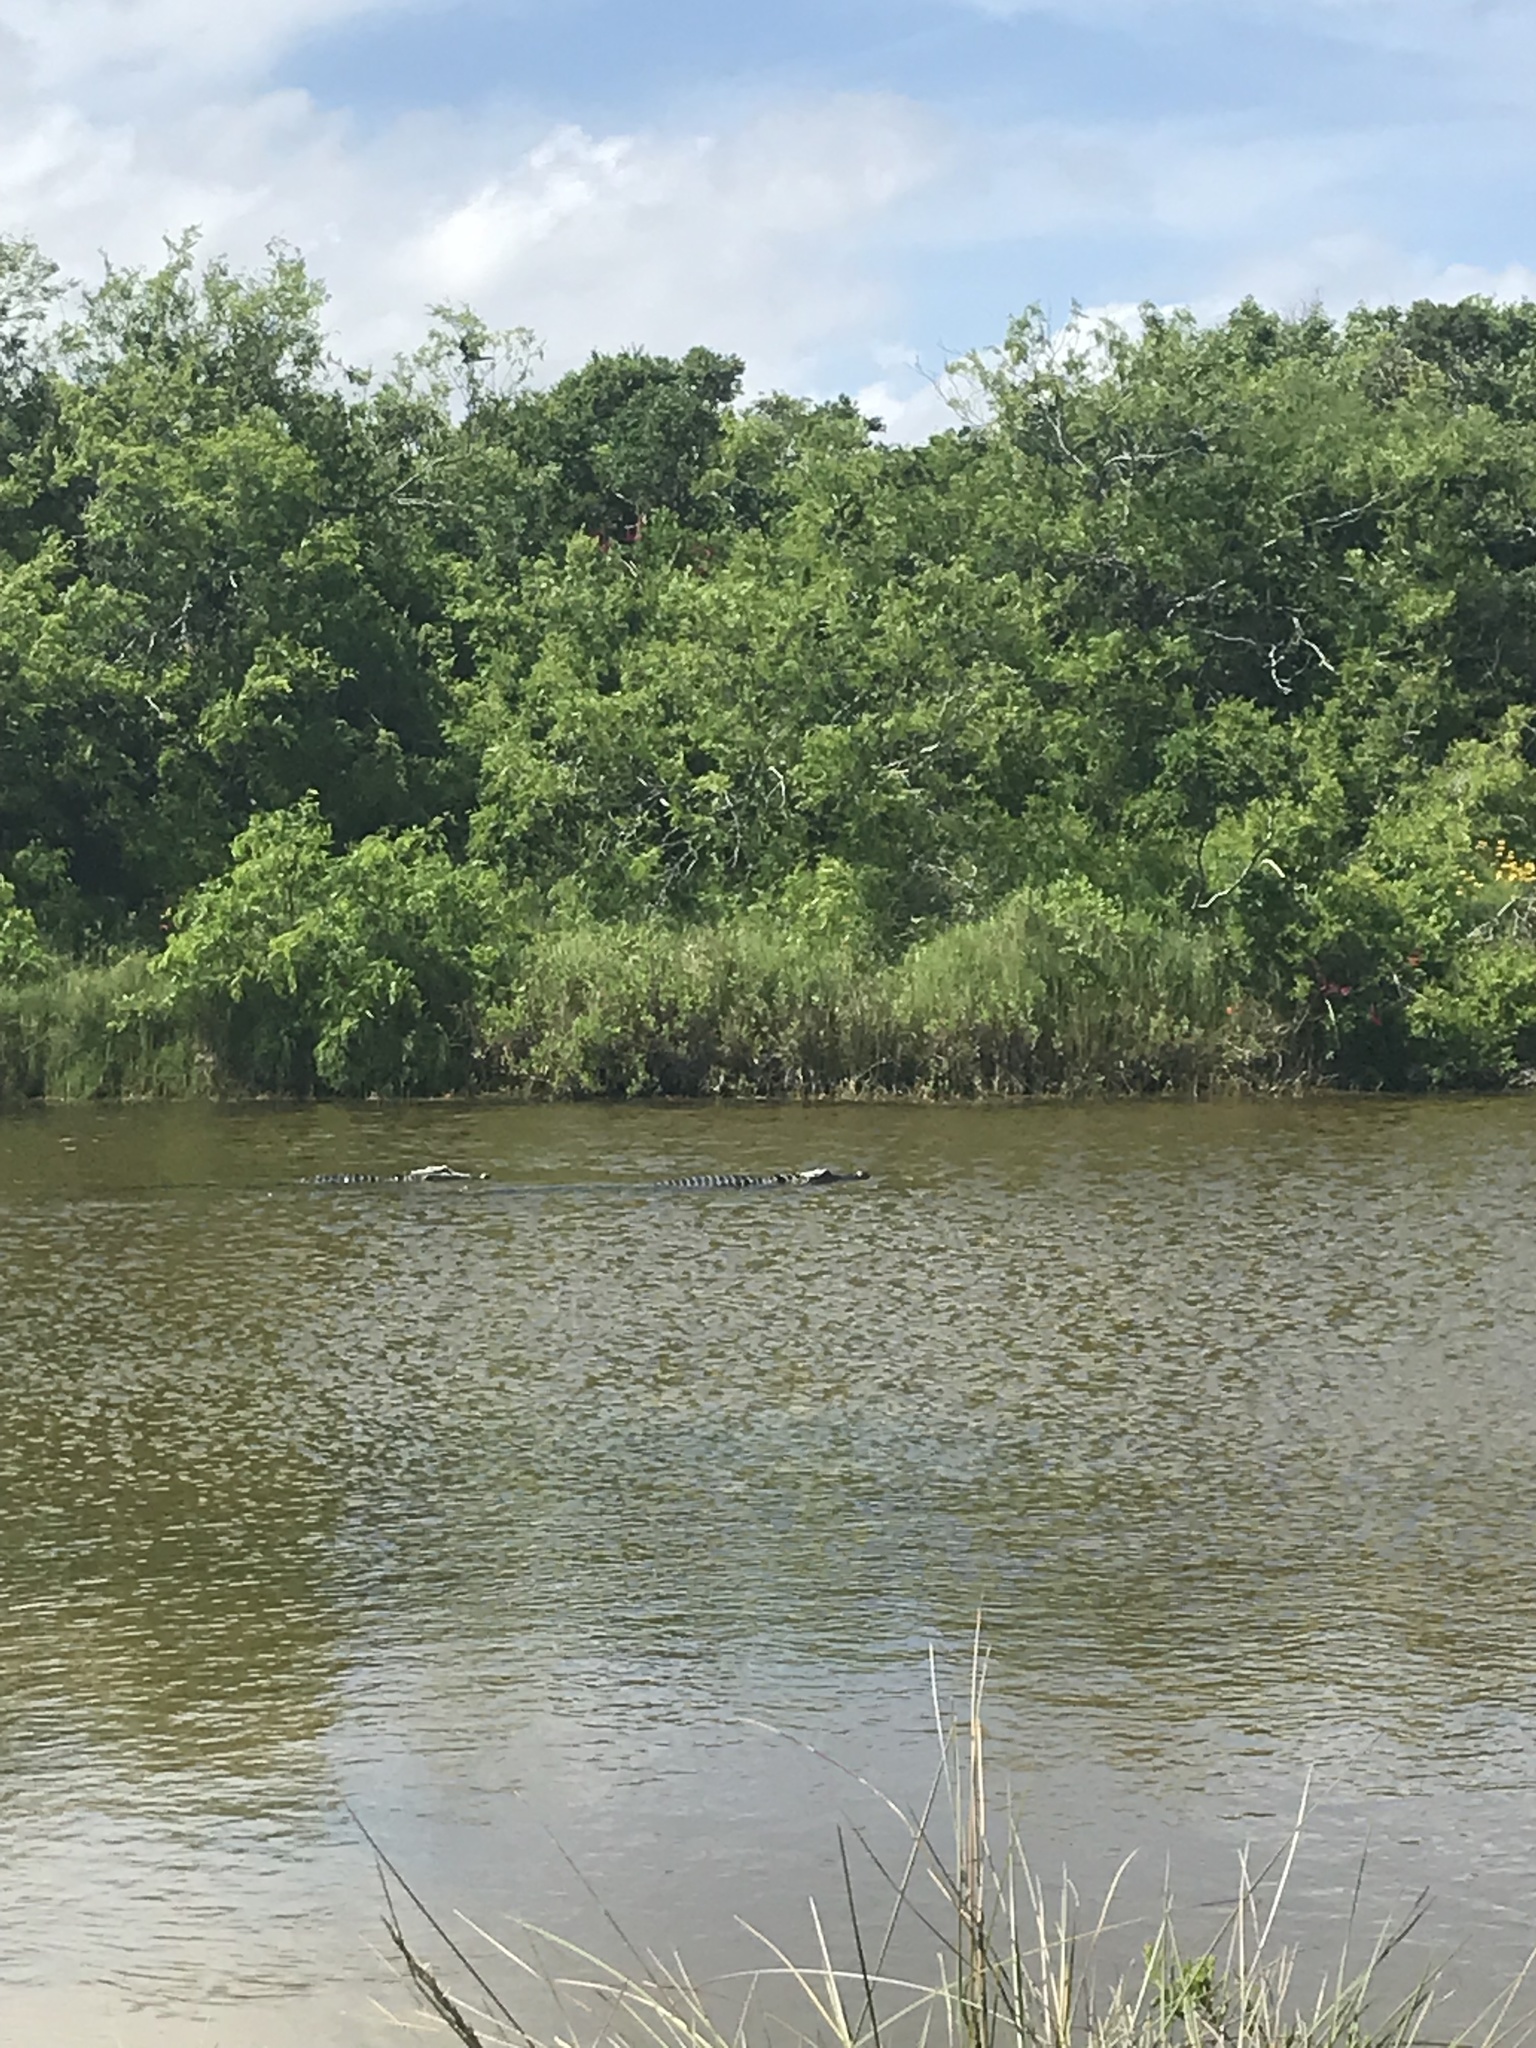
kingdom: Animalia
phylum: Chordata
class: Crocodylia
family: Alligatoridae
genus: Alligator
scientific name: Alligator mississippiensis
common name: American alligator
